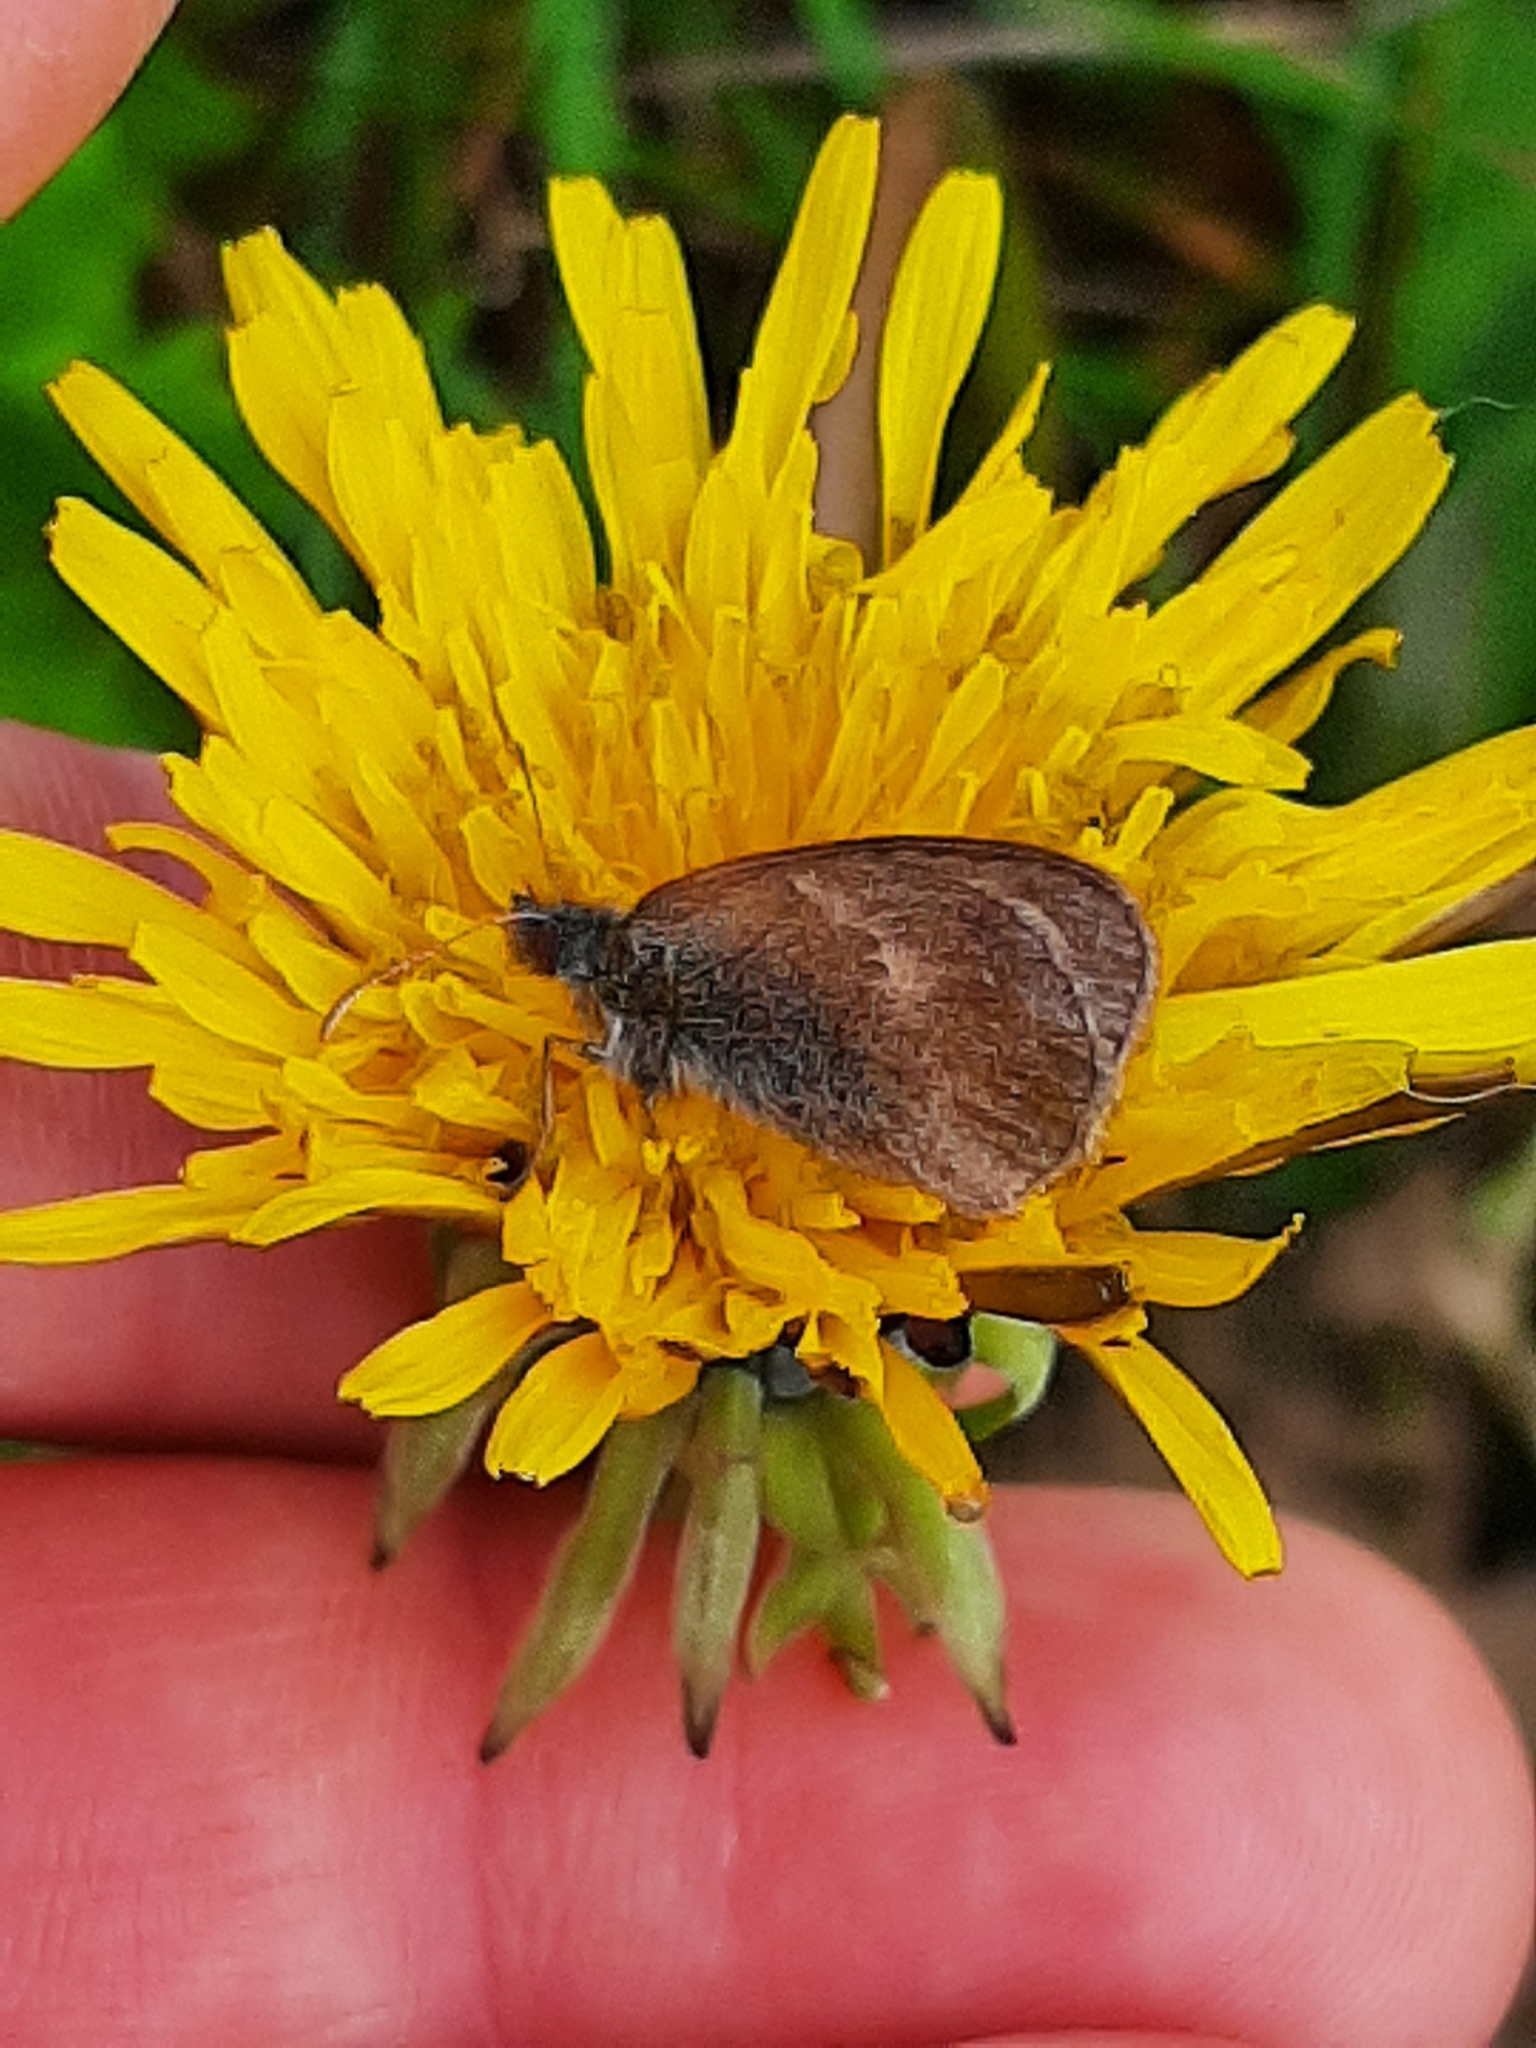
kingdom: Animalia
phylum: Arthropoda
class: Insecta
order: Lepidoptera
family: Nymphalidae
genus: Coenonympha
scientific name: Coenonympha pamphilus
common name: Small heath
